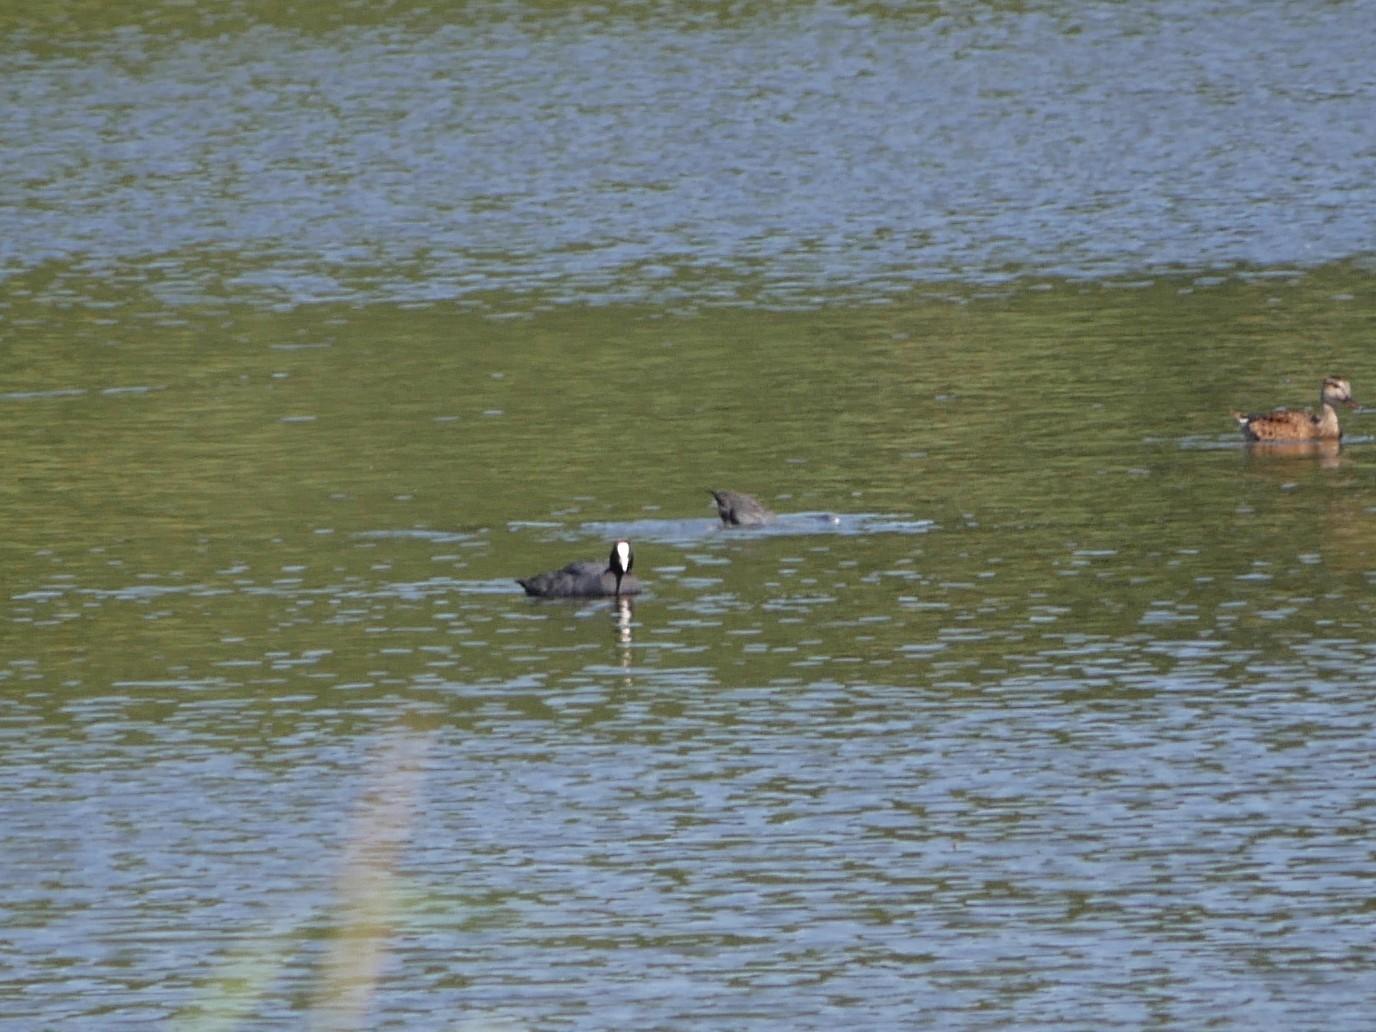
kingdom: Animalia
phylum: Chordata
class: Aves
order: Gruiformes
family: Rallidae
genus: Fulica
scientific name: Fulica atra
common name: Eurasian coot
